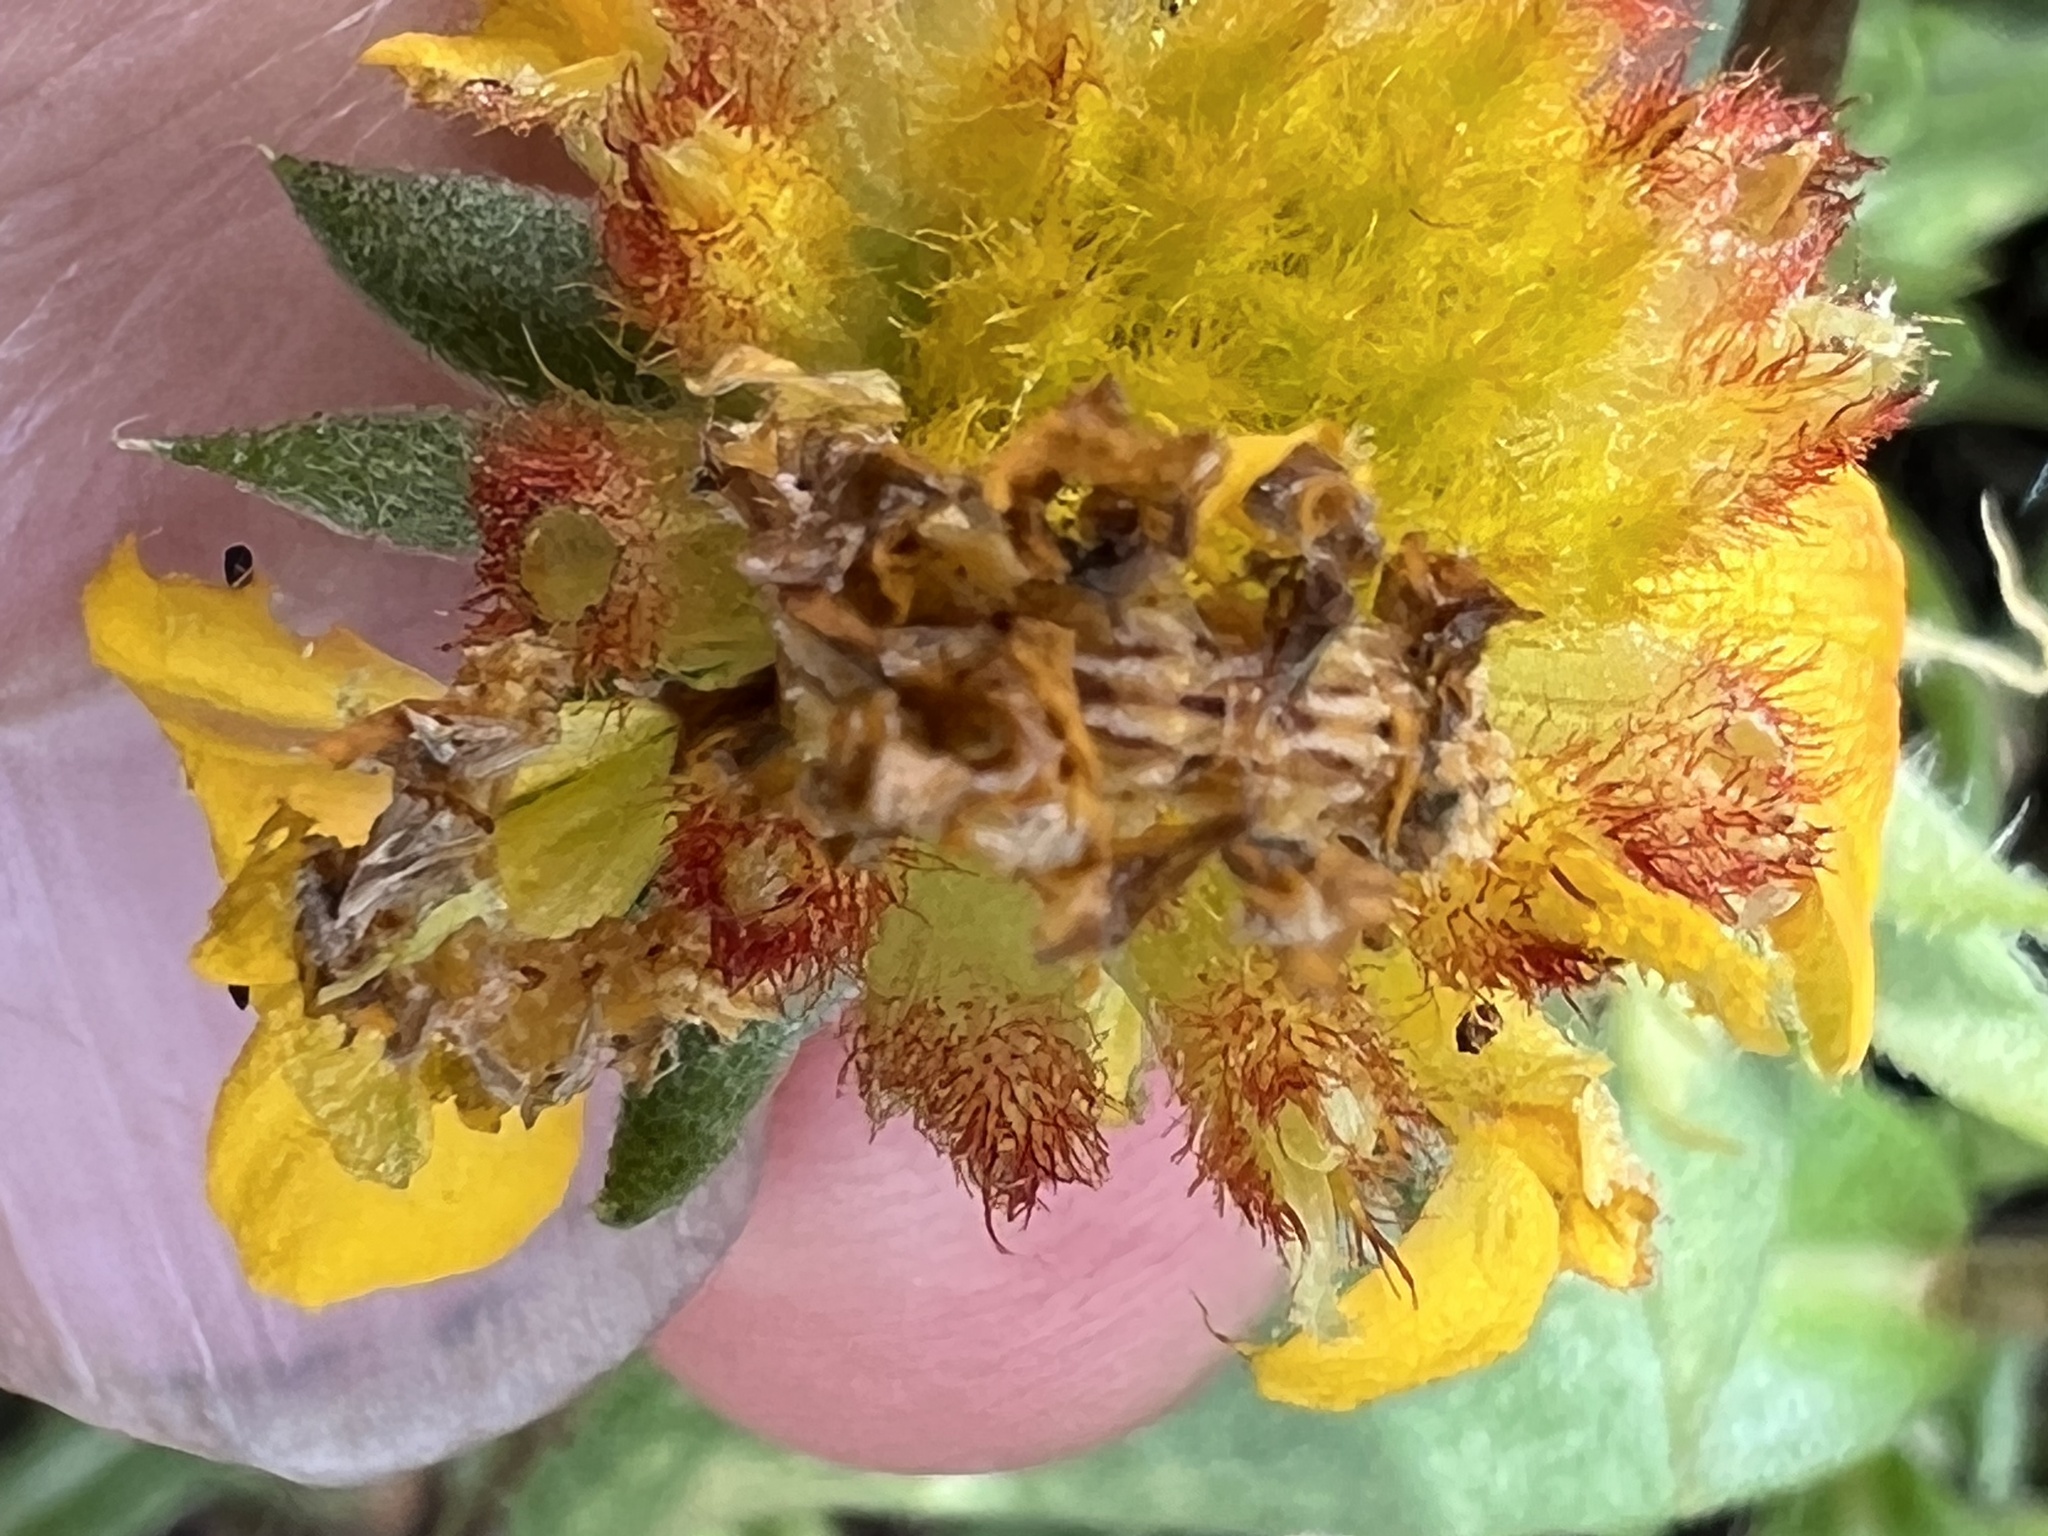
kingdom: Animalia
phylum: Arthropoda
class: Insecta
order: Lepidoptera
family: Geometridae
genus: Synchlora
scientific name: Synchlora
